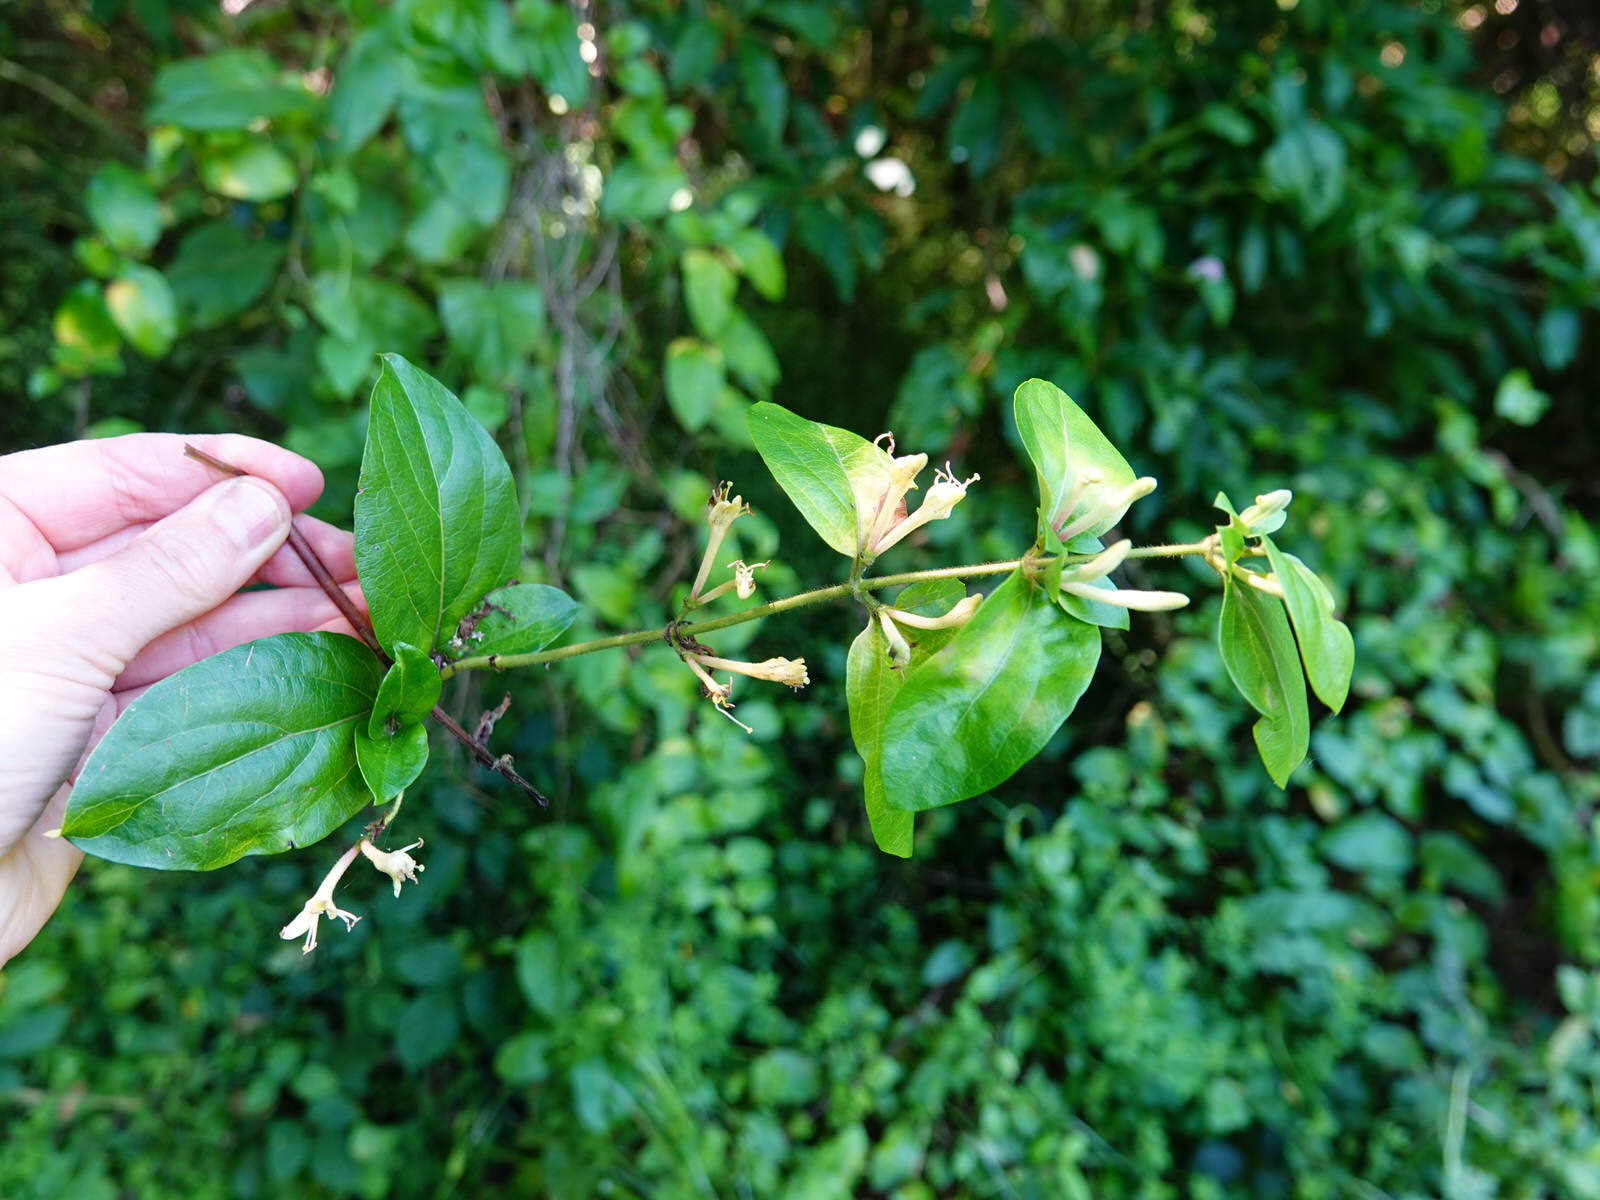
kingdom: Plantae
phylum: Tracheophyta
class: Magnoliopsida
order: Dipsacales
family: Caprifoliaceae
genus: Lonicera
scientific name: Lonicera japonica
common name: Japanese honeysuckle
